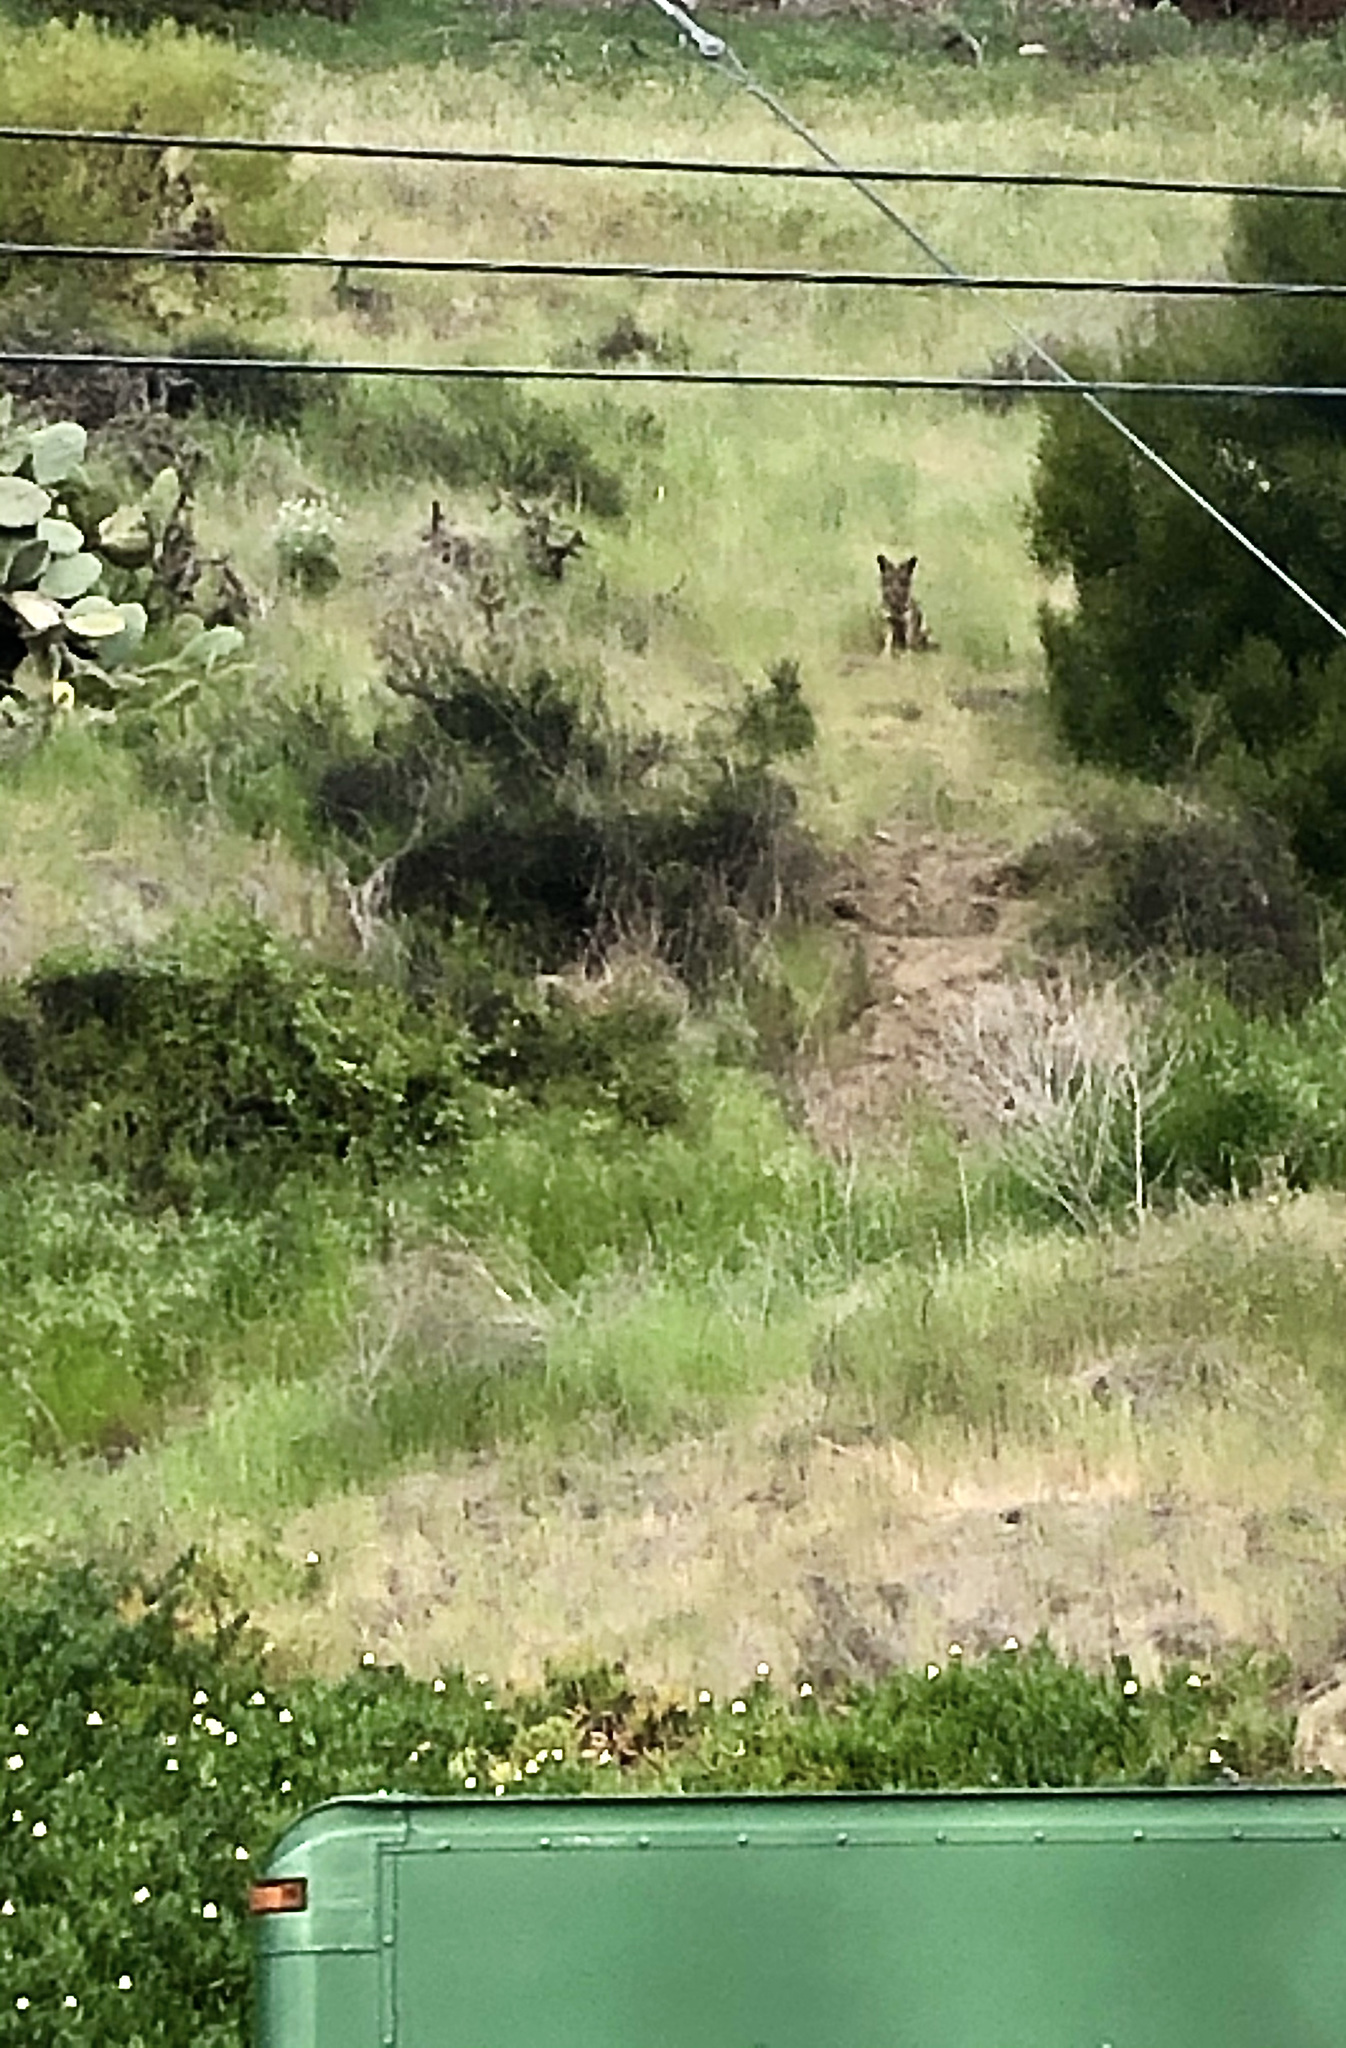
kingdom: Animalia
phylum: Chordata
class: Mammalia
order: Carnivora
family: Canidae
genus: Canis
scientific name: Canis latrans
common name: Coyote
